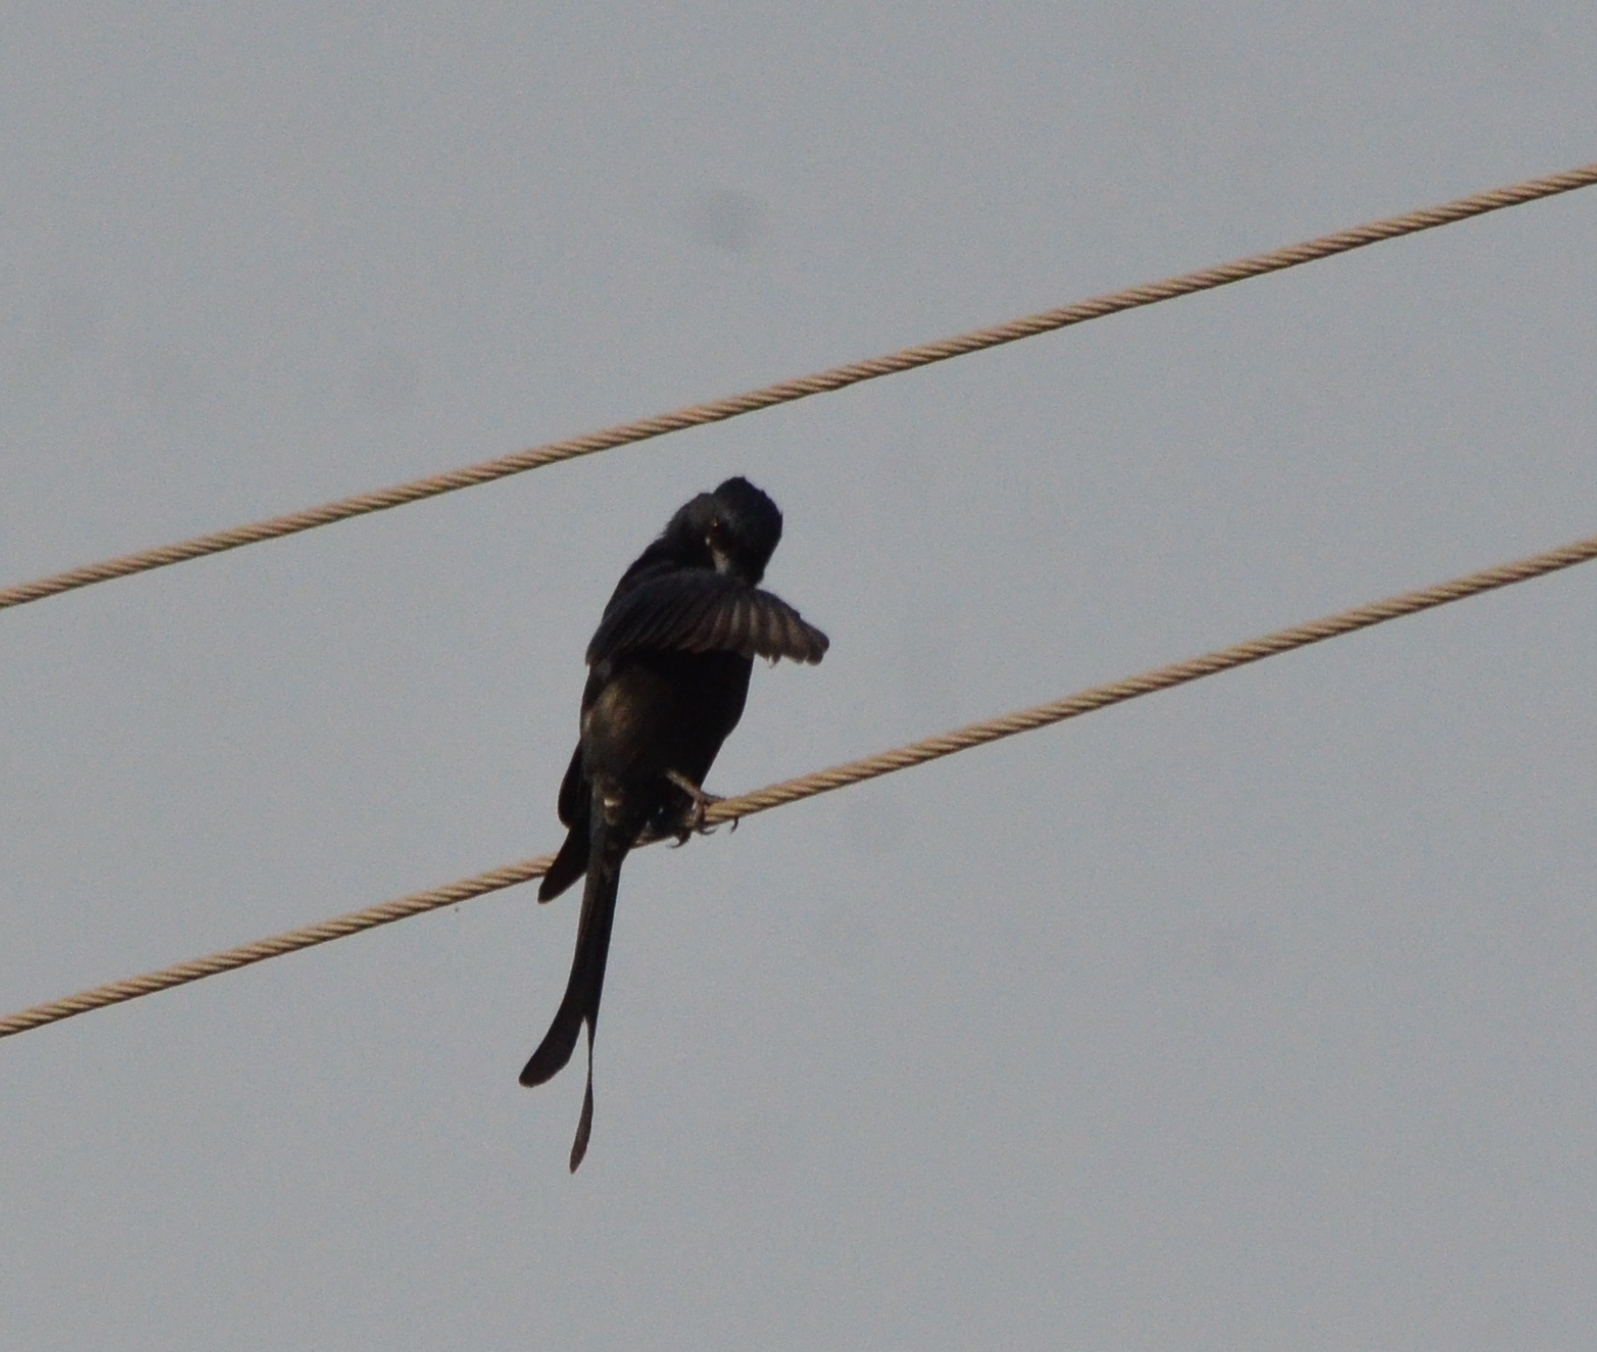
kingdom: Animalia
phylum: Chordata
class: Aves
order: Passeriformes
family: Dicruridae
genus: Dicrurus
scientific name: Dicrurus macrocercus
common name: Black drongo
